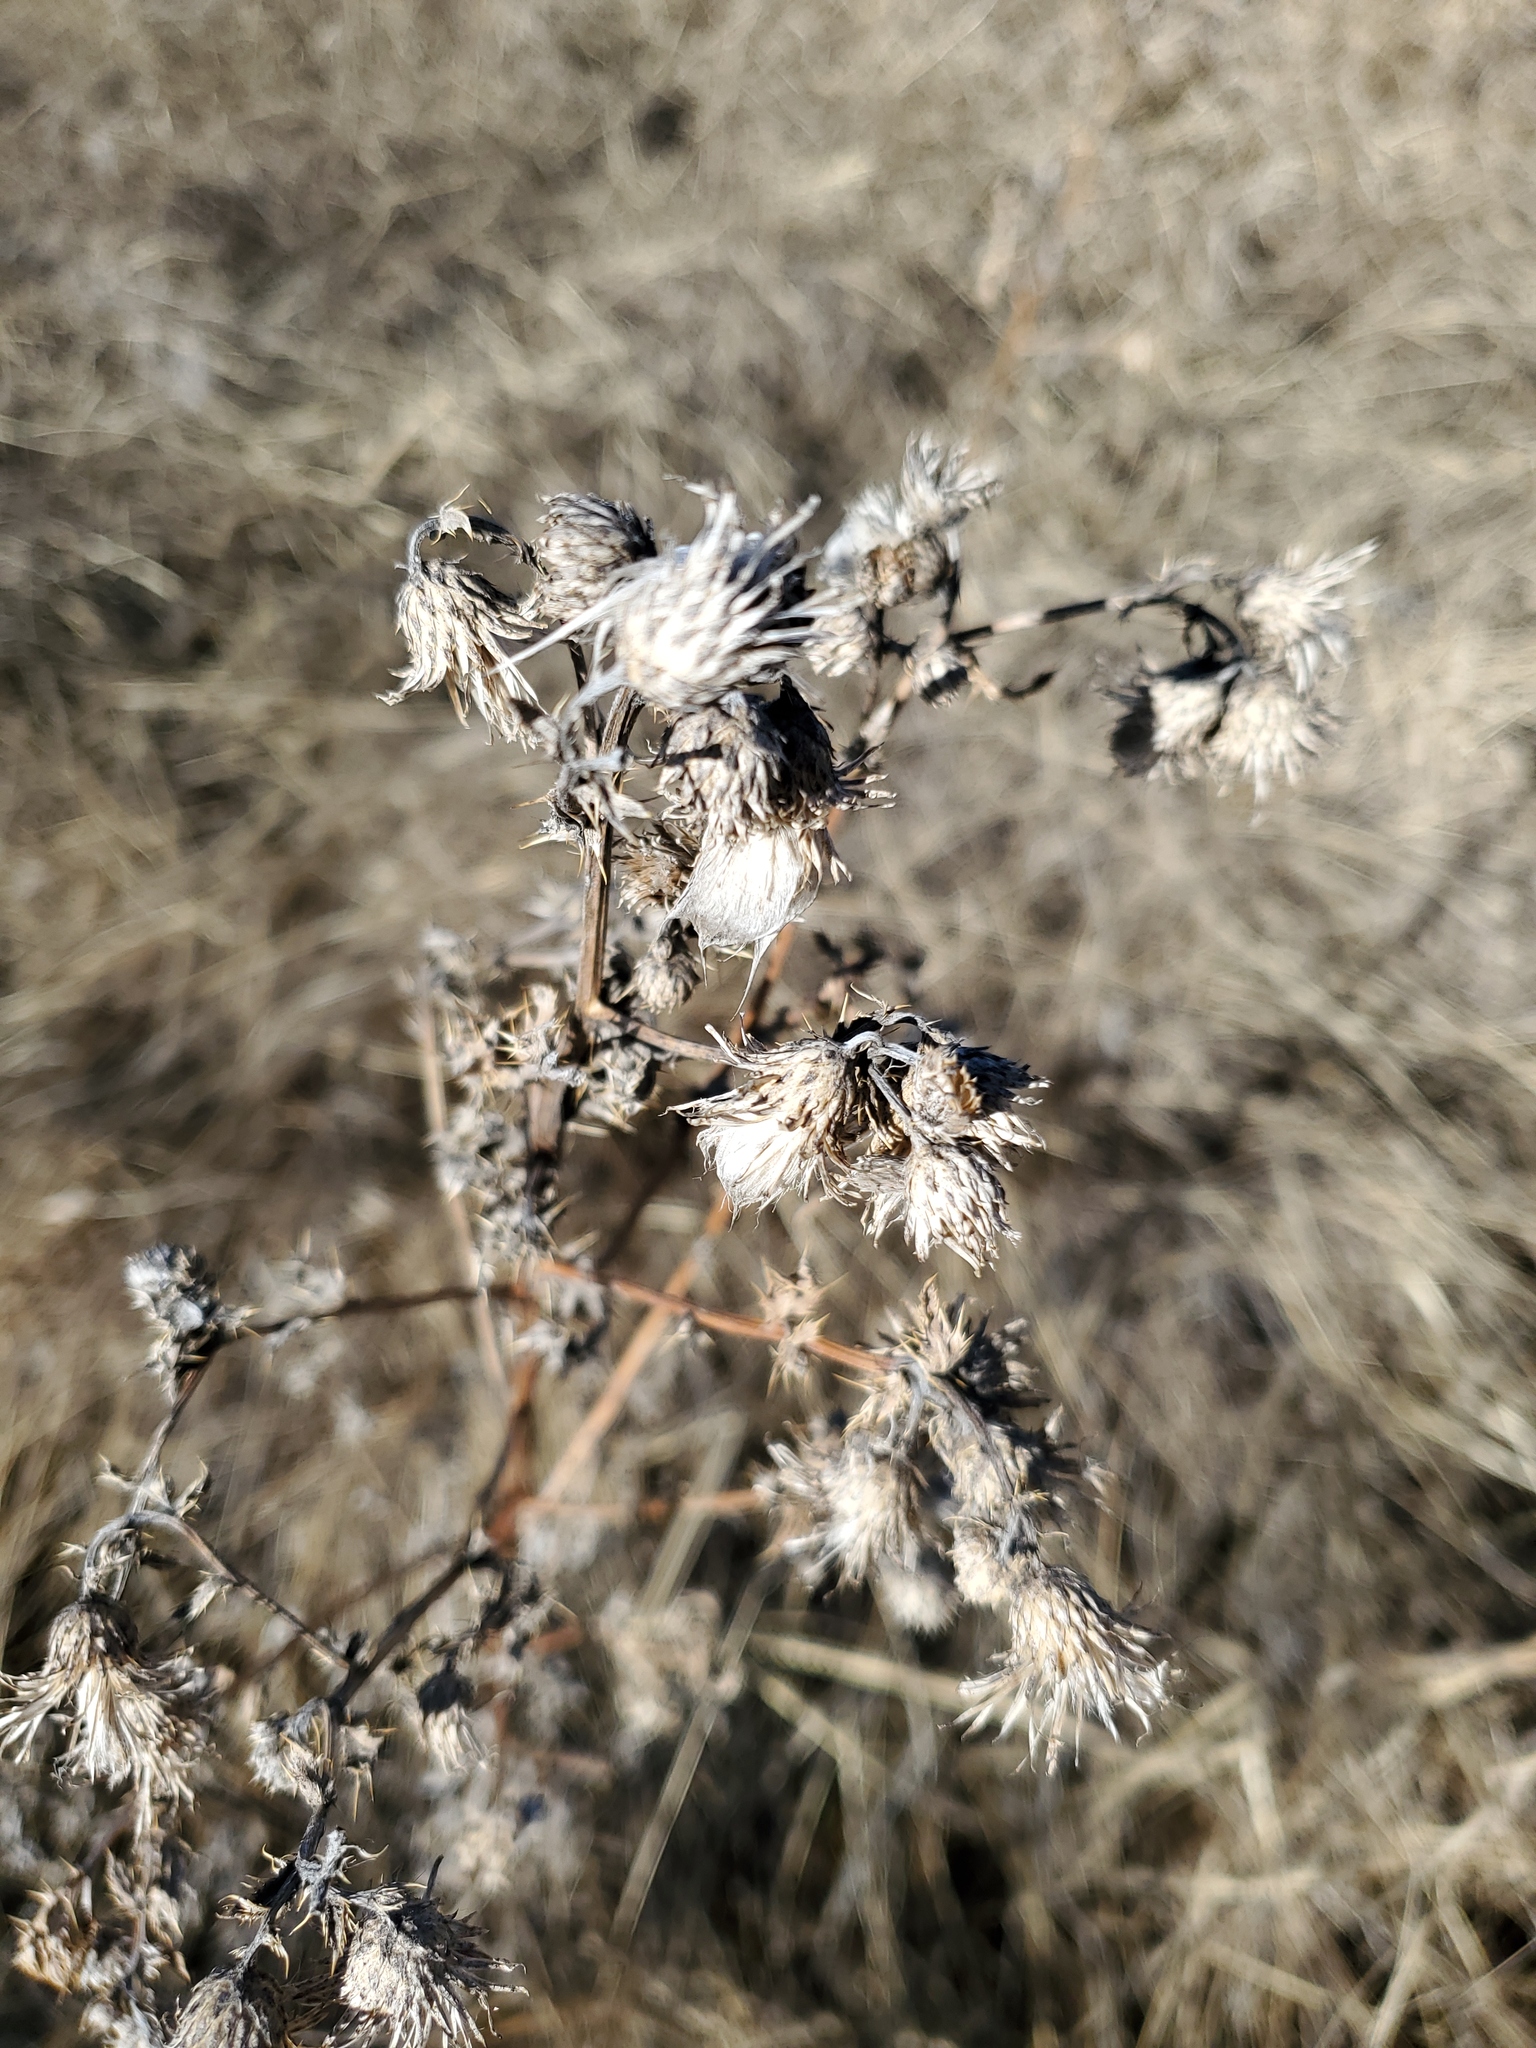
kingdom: Plantae
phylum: Tracheophyta
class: Magnoliopsida
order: Asterales
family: Asteraceae
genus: Cirsium
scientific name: Cirsium arvense
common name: Creeping thistle
